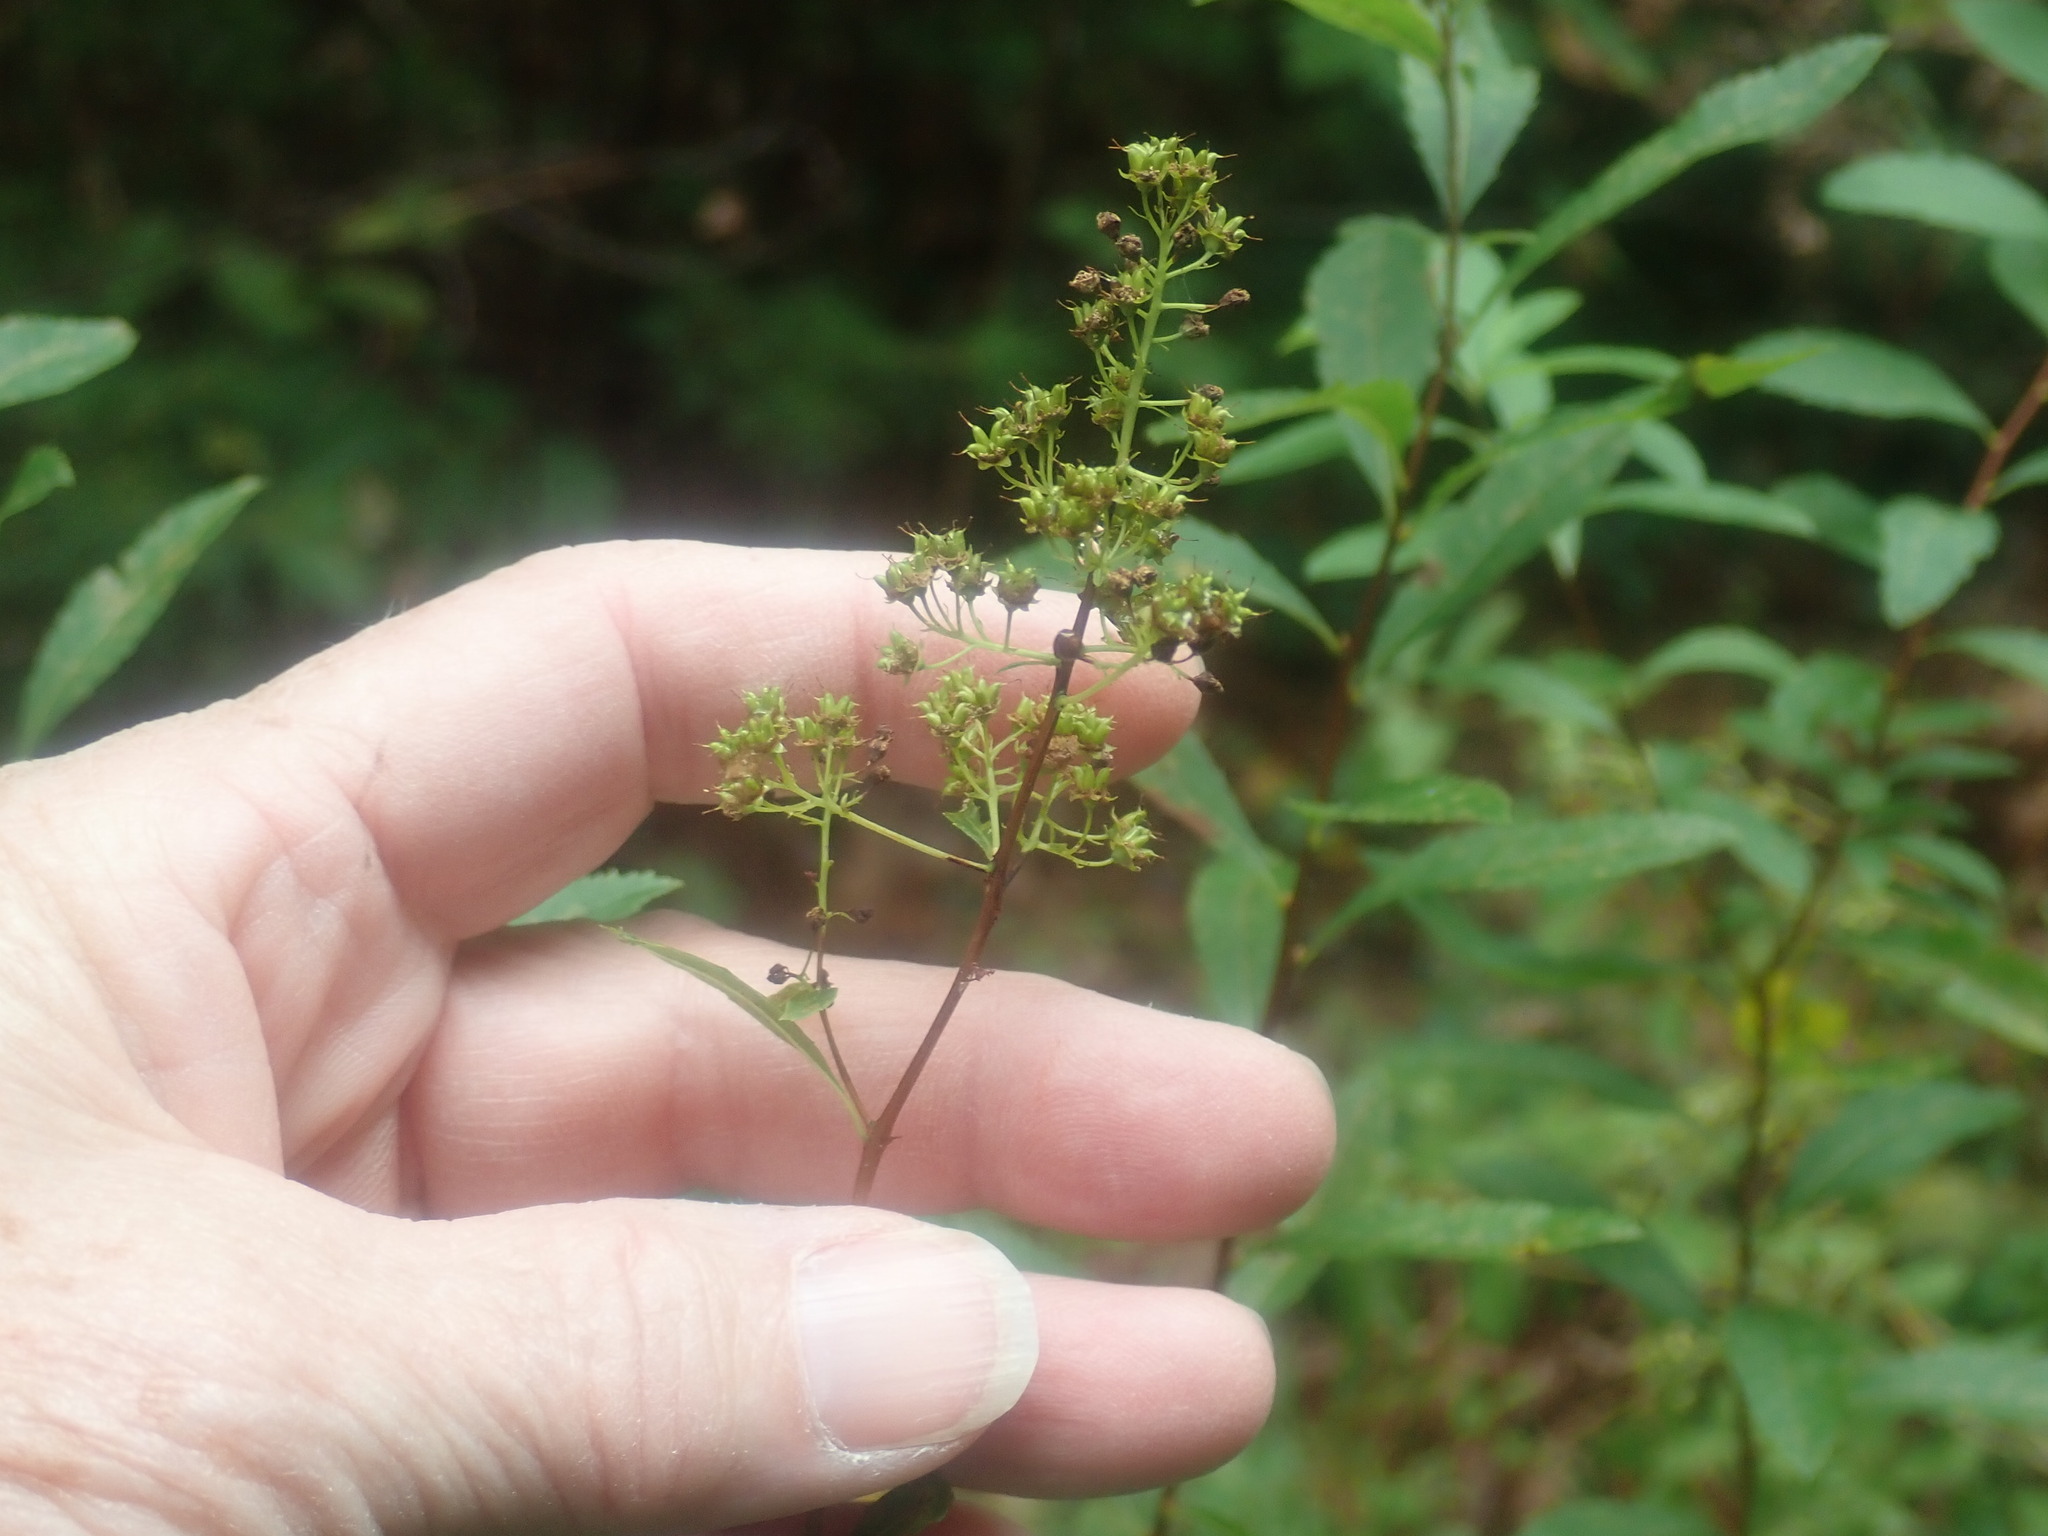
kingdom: Plantae
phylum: Tracheophyta
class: Magnoliopsida
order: Rosales
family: Rosaceae
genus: Spiraea
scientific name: Spiraea alba
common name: Pale bridewort
